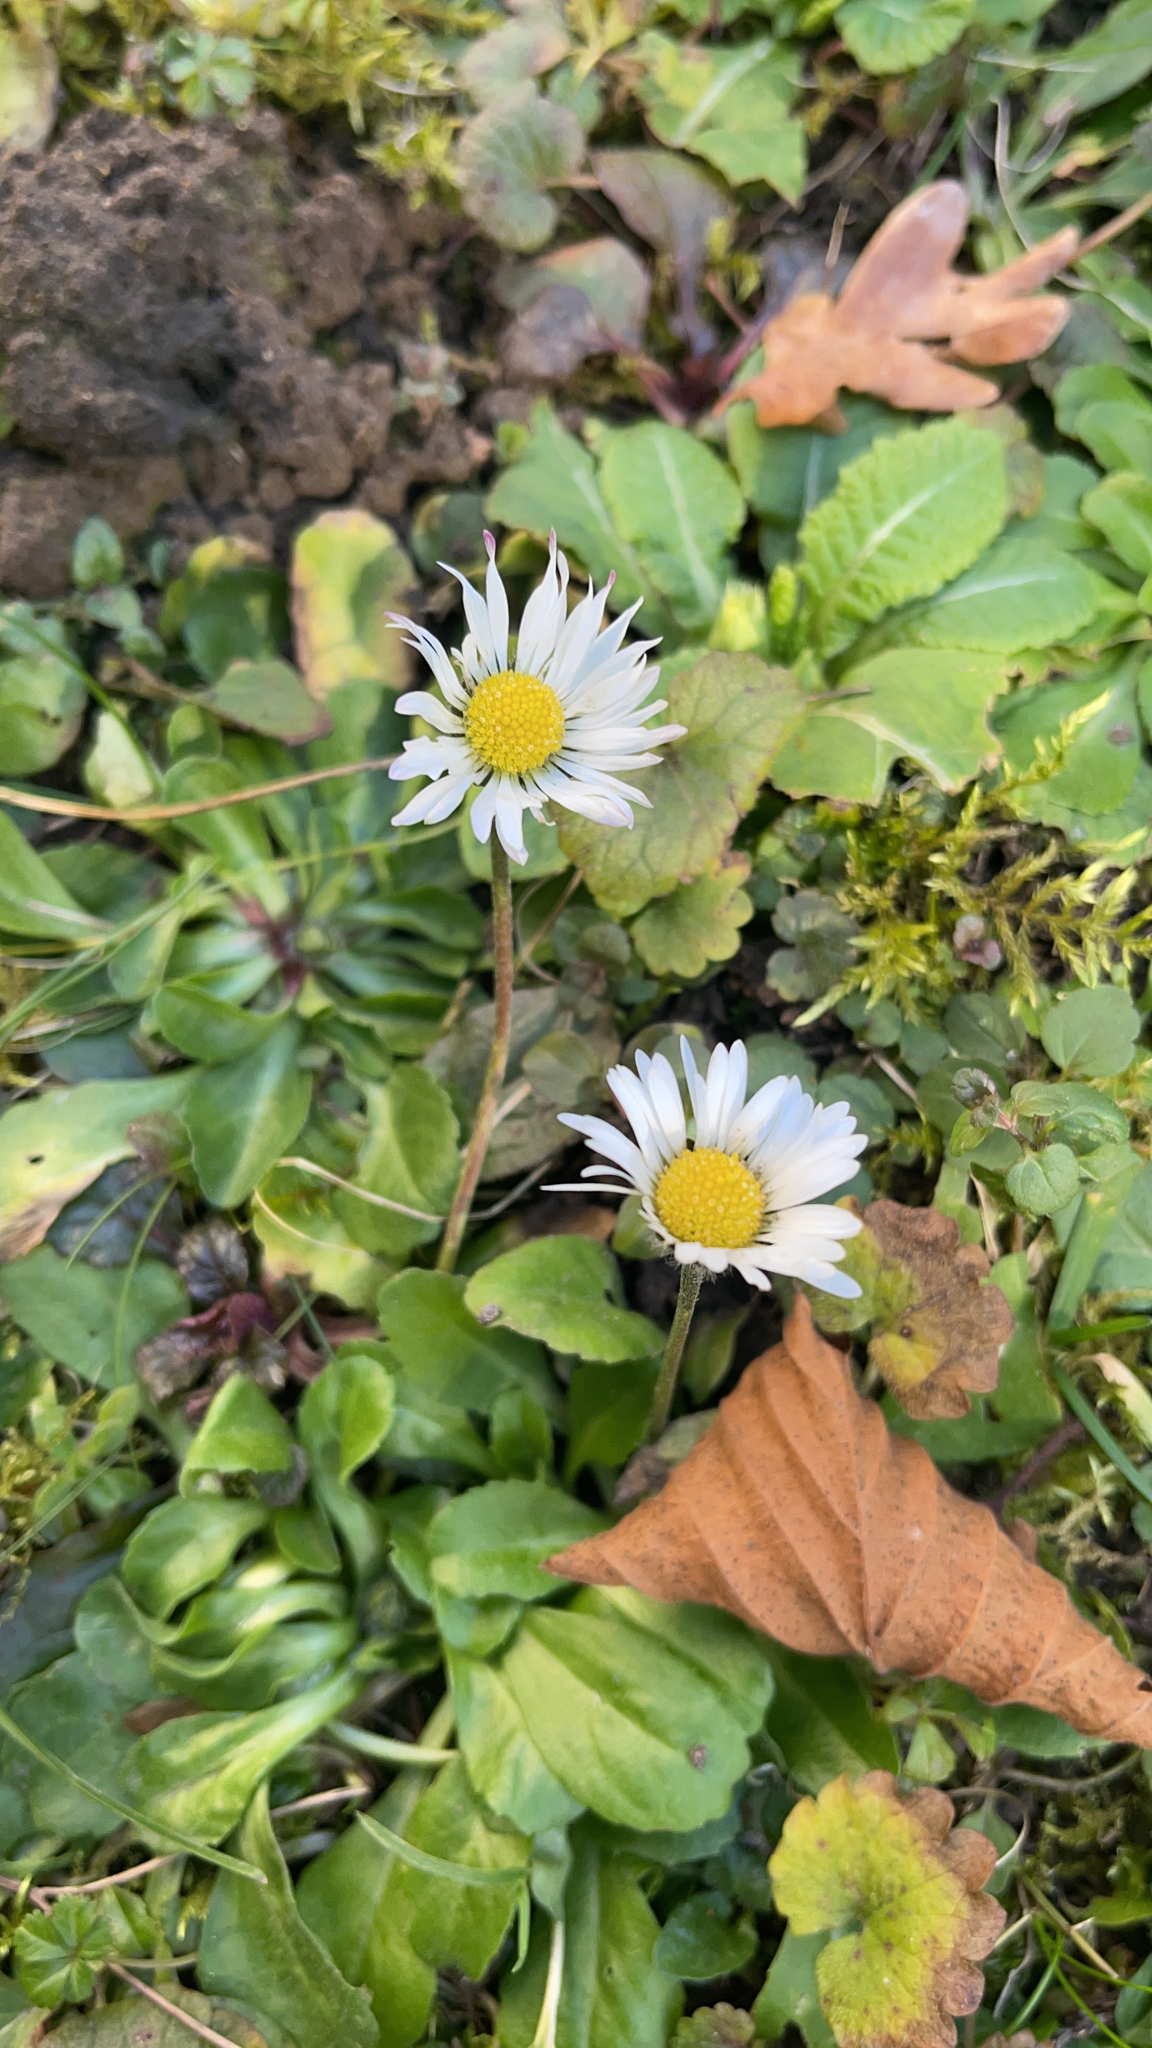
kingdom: Plantae
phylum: Tracheophyta
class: Magnoliopsida
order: Asterales
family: Asteraceae
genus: Bellis
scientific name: Bellis perennis
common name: Lawndaisy
